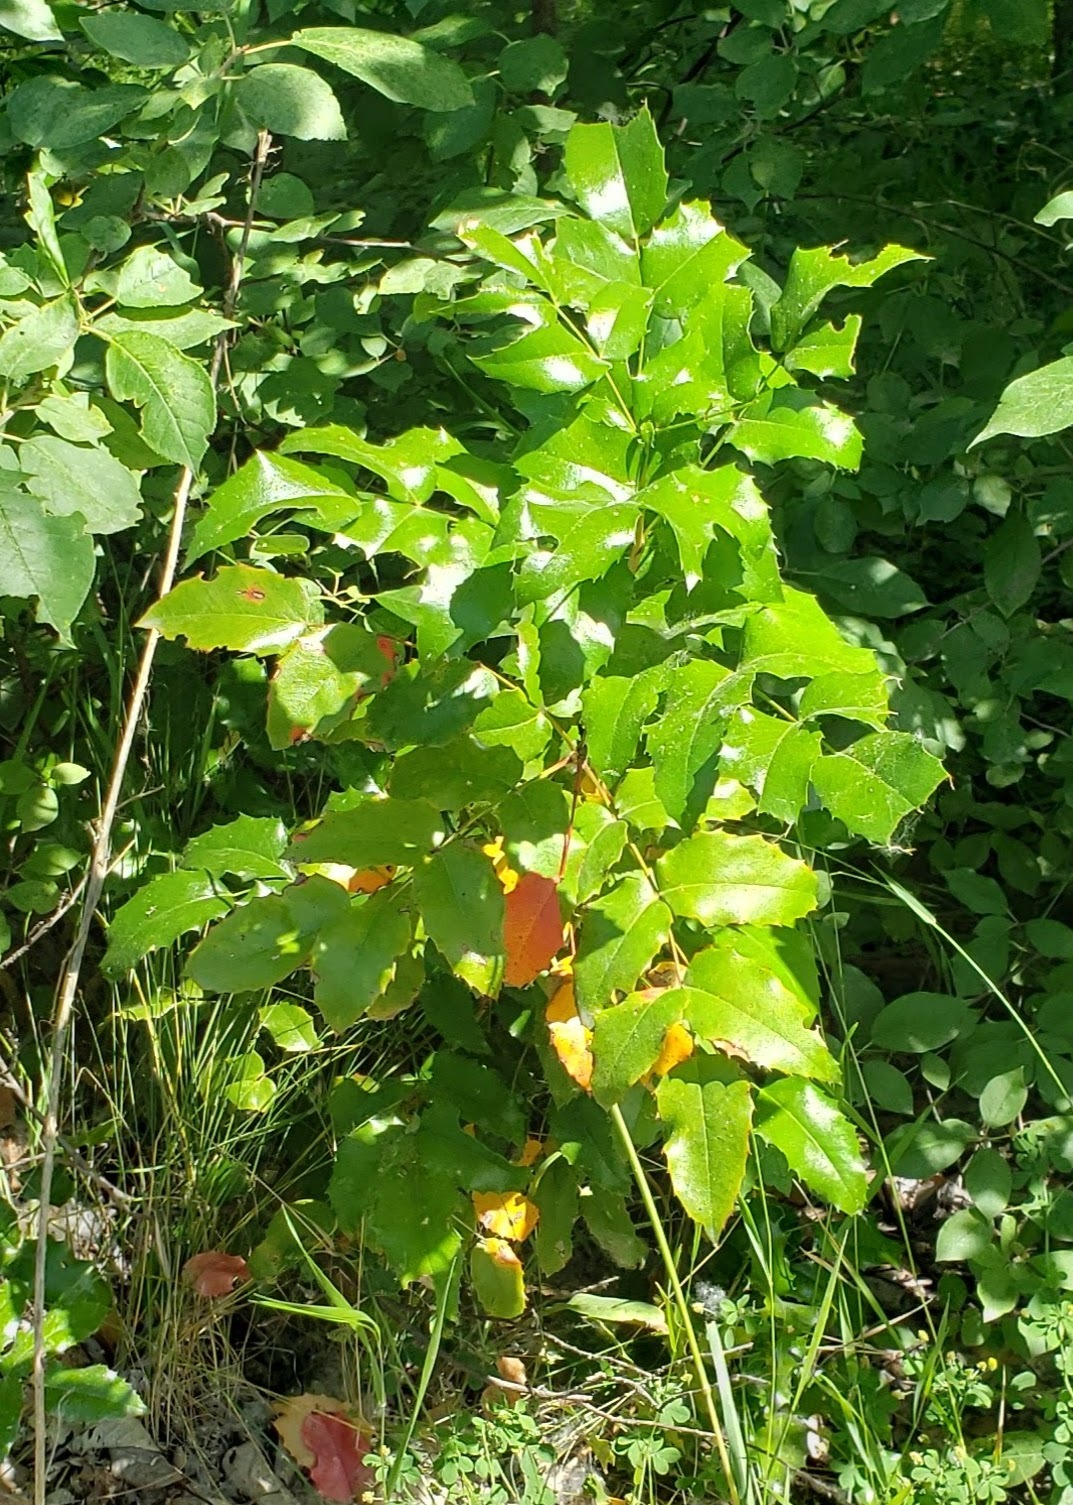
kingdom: Plantae
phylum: Tracheophyta
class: Magnoliopsida
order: Ranunculales
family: Berberidaceae
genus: Mahonia
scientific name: Mahonia aquifolium
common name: Oregon-grape
